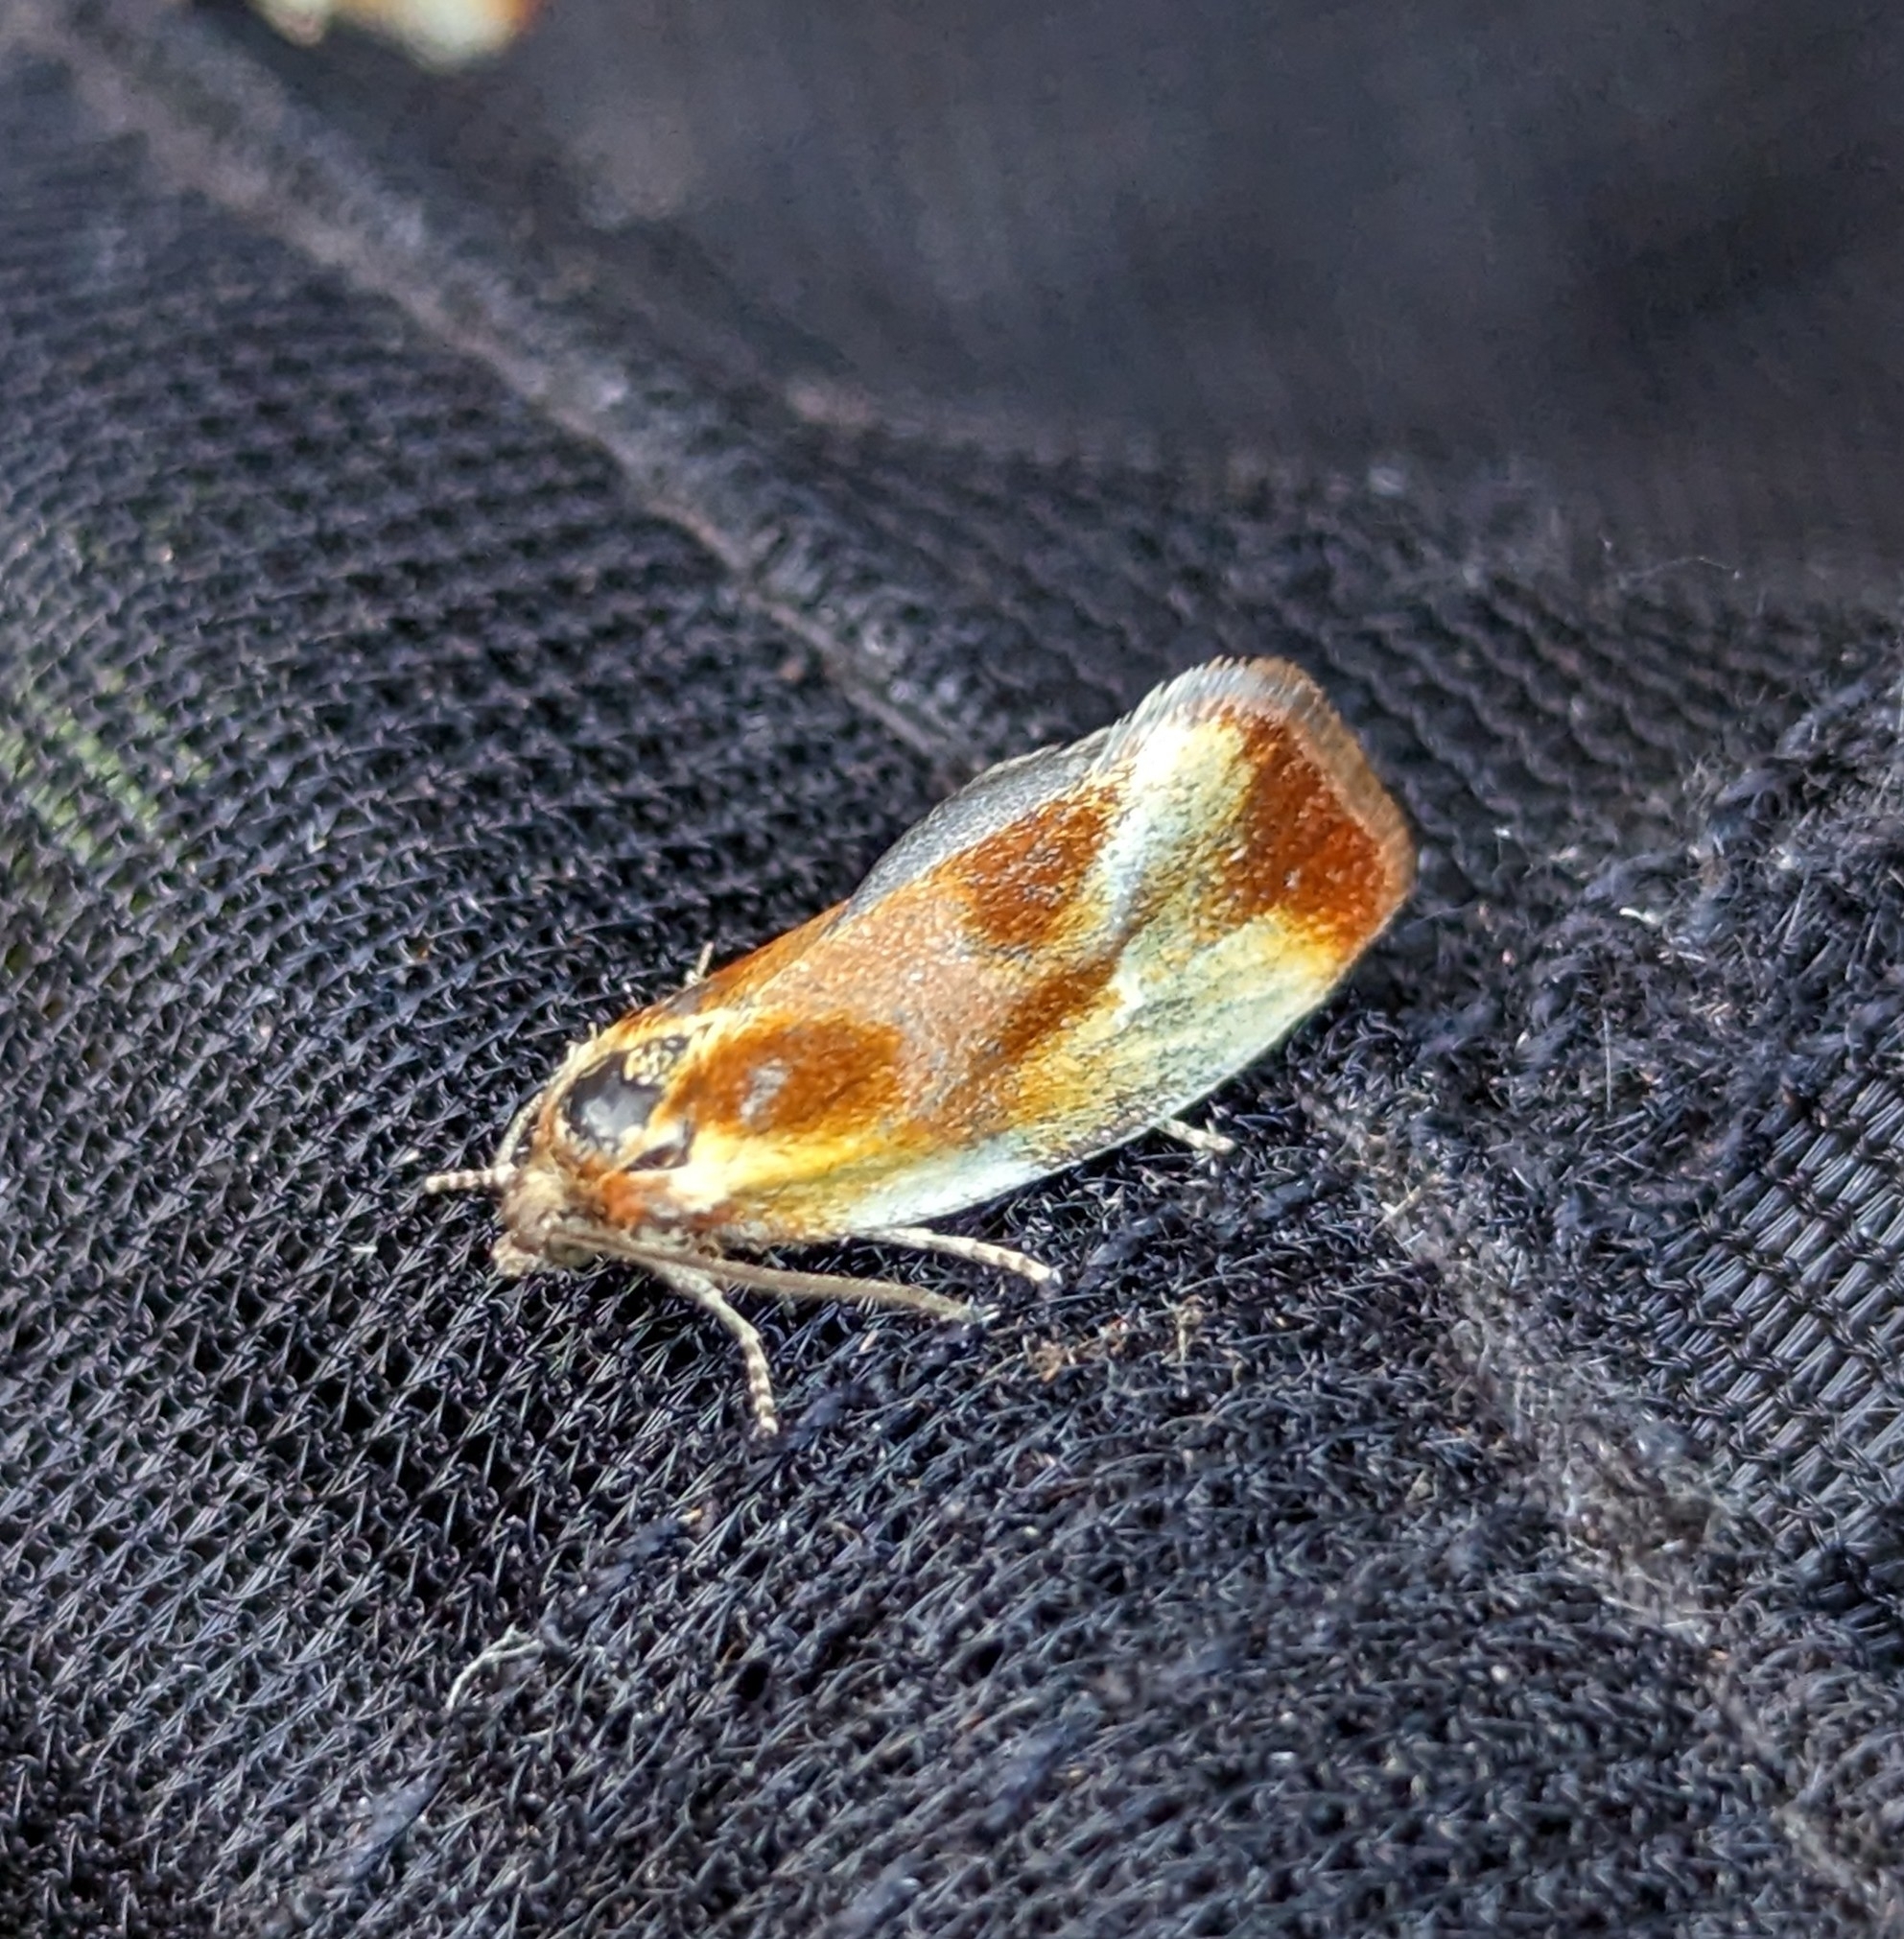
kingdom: Animalia
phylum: Arthropoda
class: Insecta
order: Lepidoptera
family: Tortricidae
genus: Eulia
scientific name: Eulia ministrana
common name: Brassy twist
